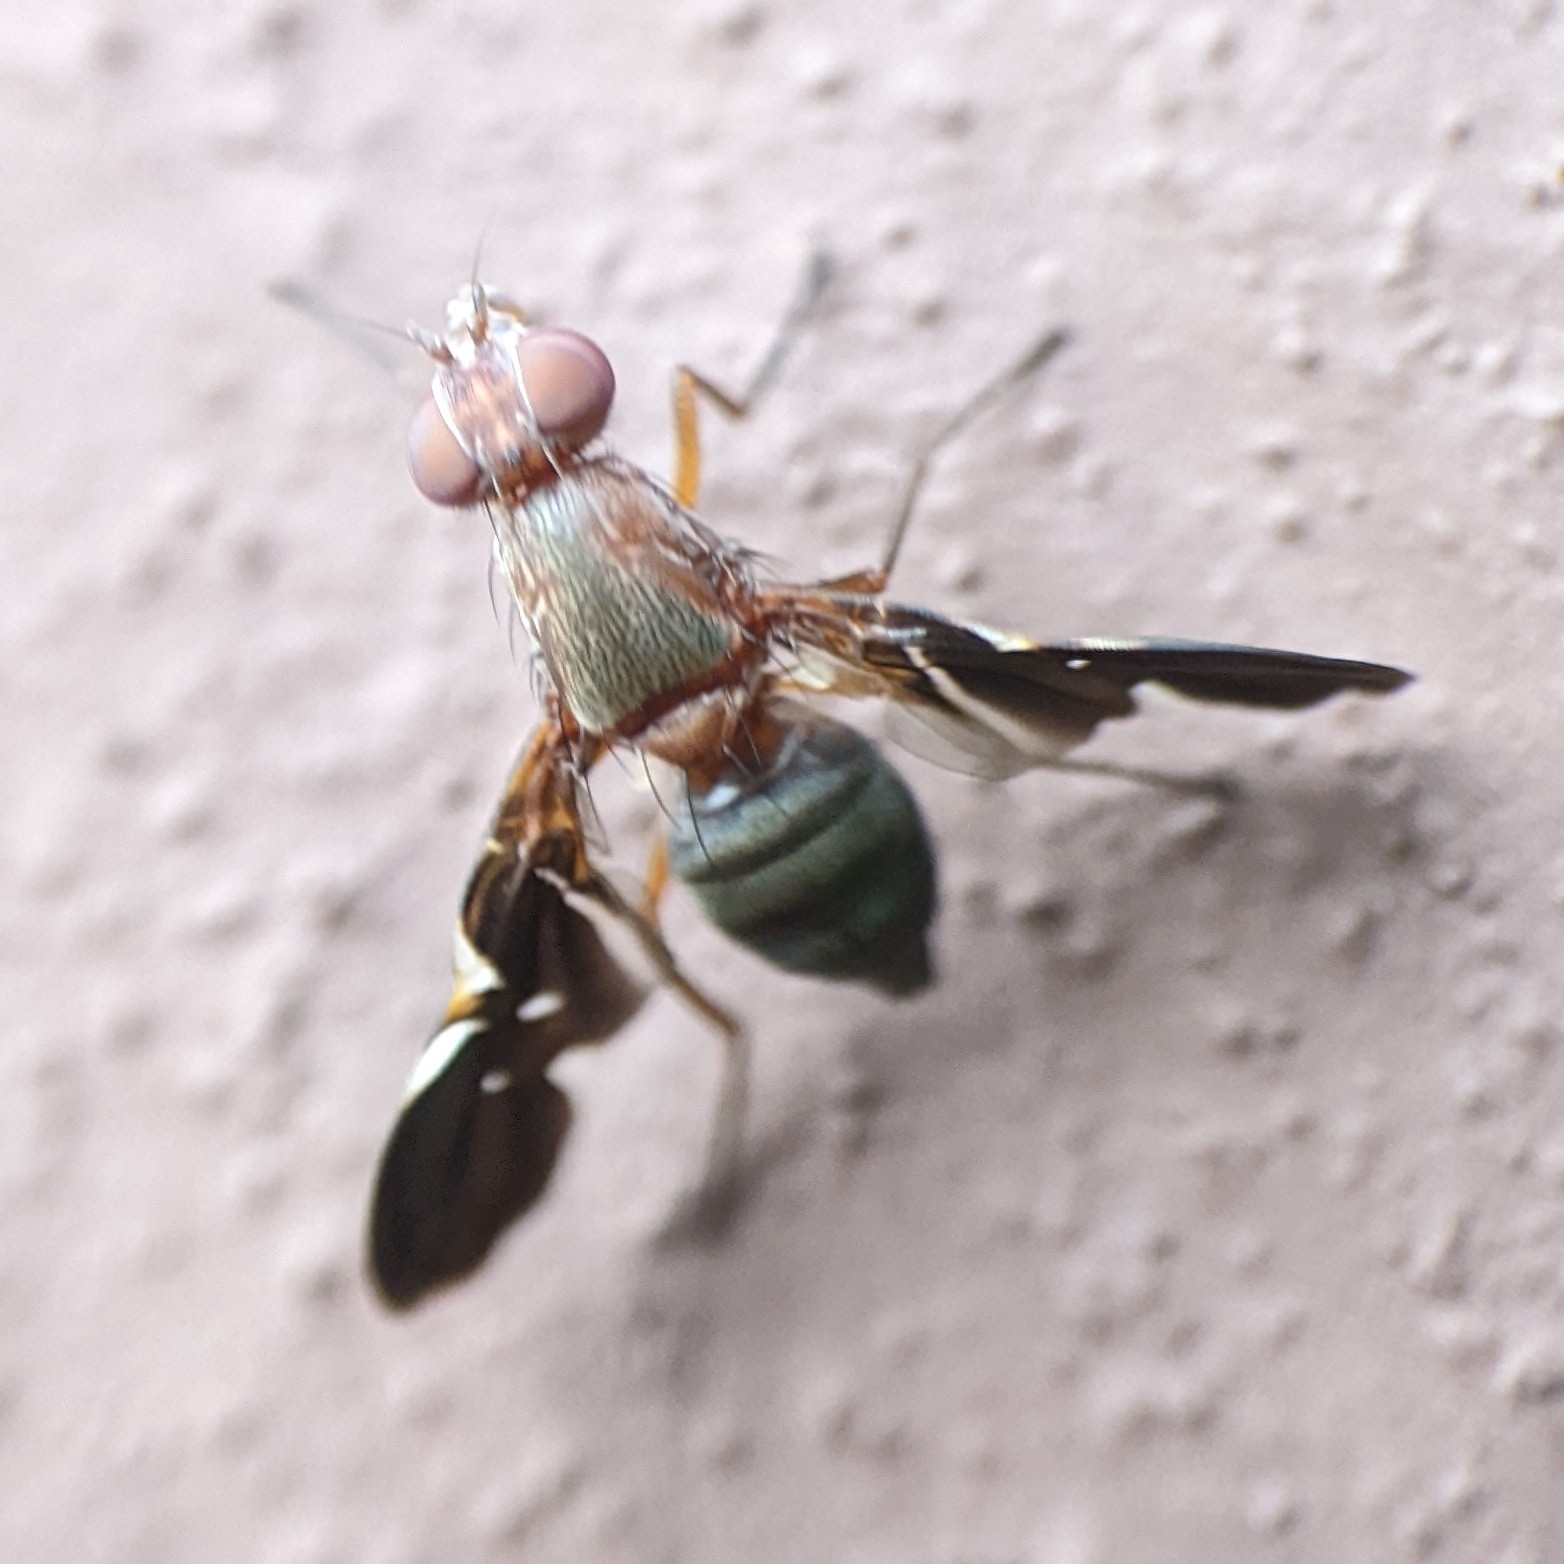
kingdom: Animalia
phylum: Arthropoda
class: Insecta
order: Diptera
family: Ulidiidae
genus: Delphinia
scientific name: Delphinia picta
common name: Common picture-winged fly
